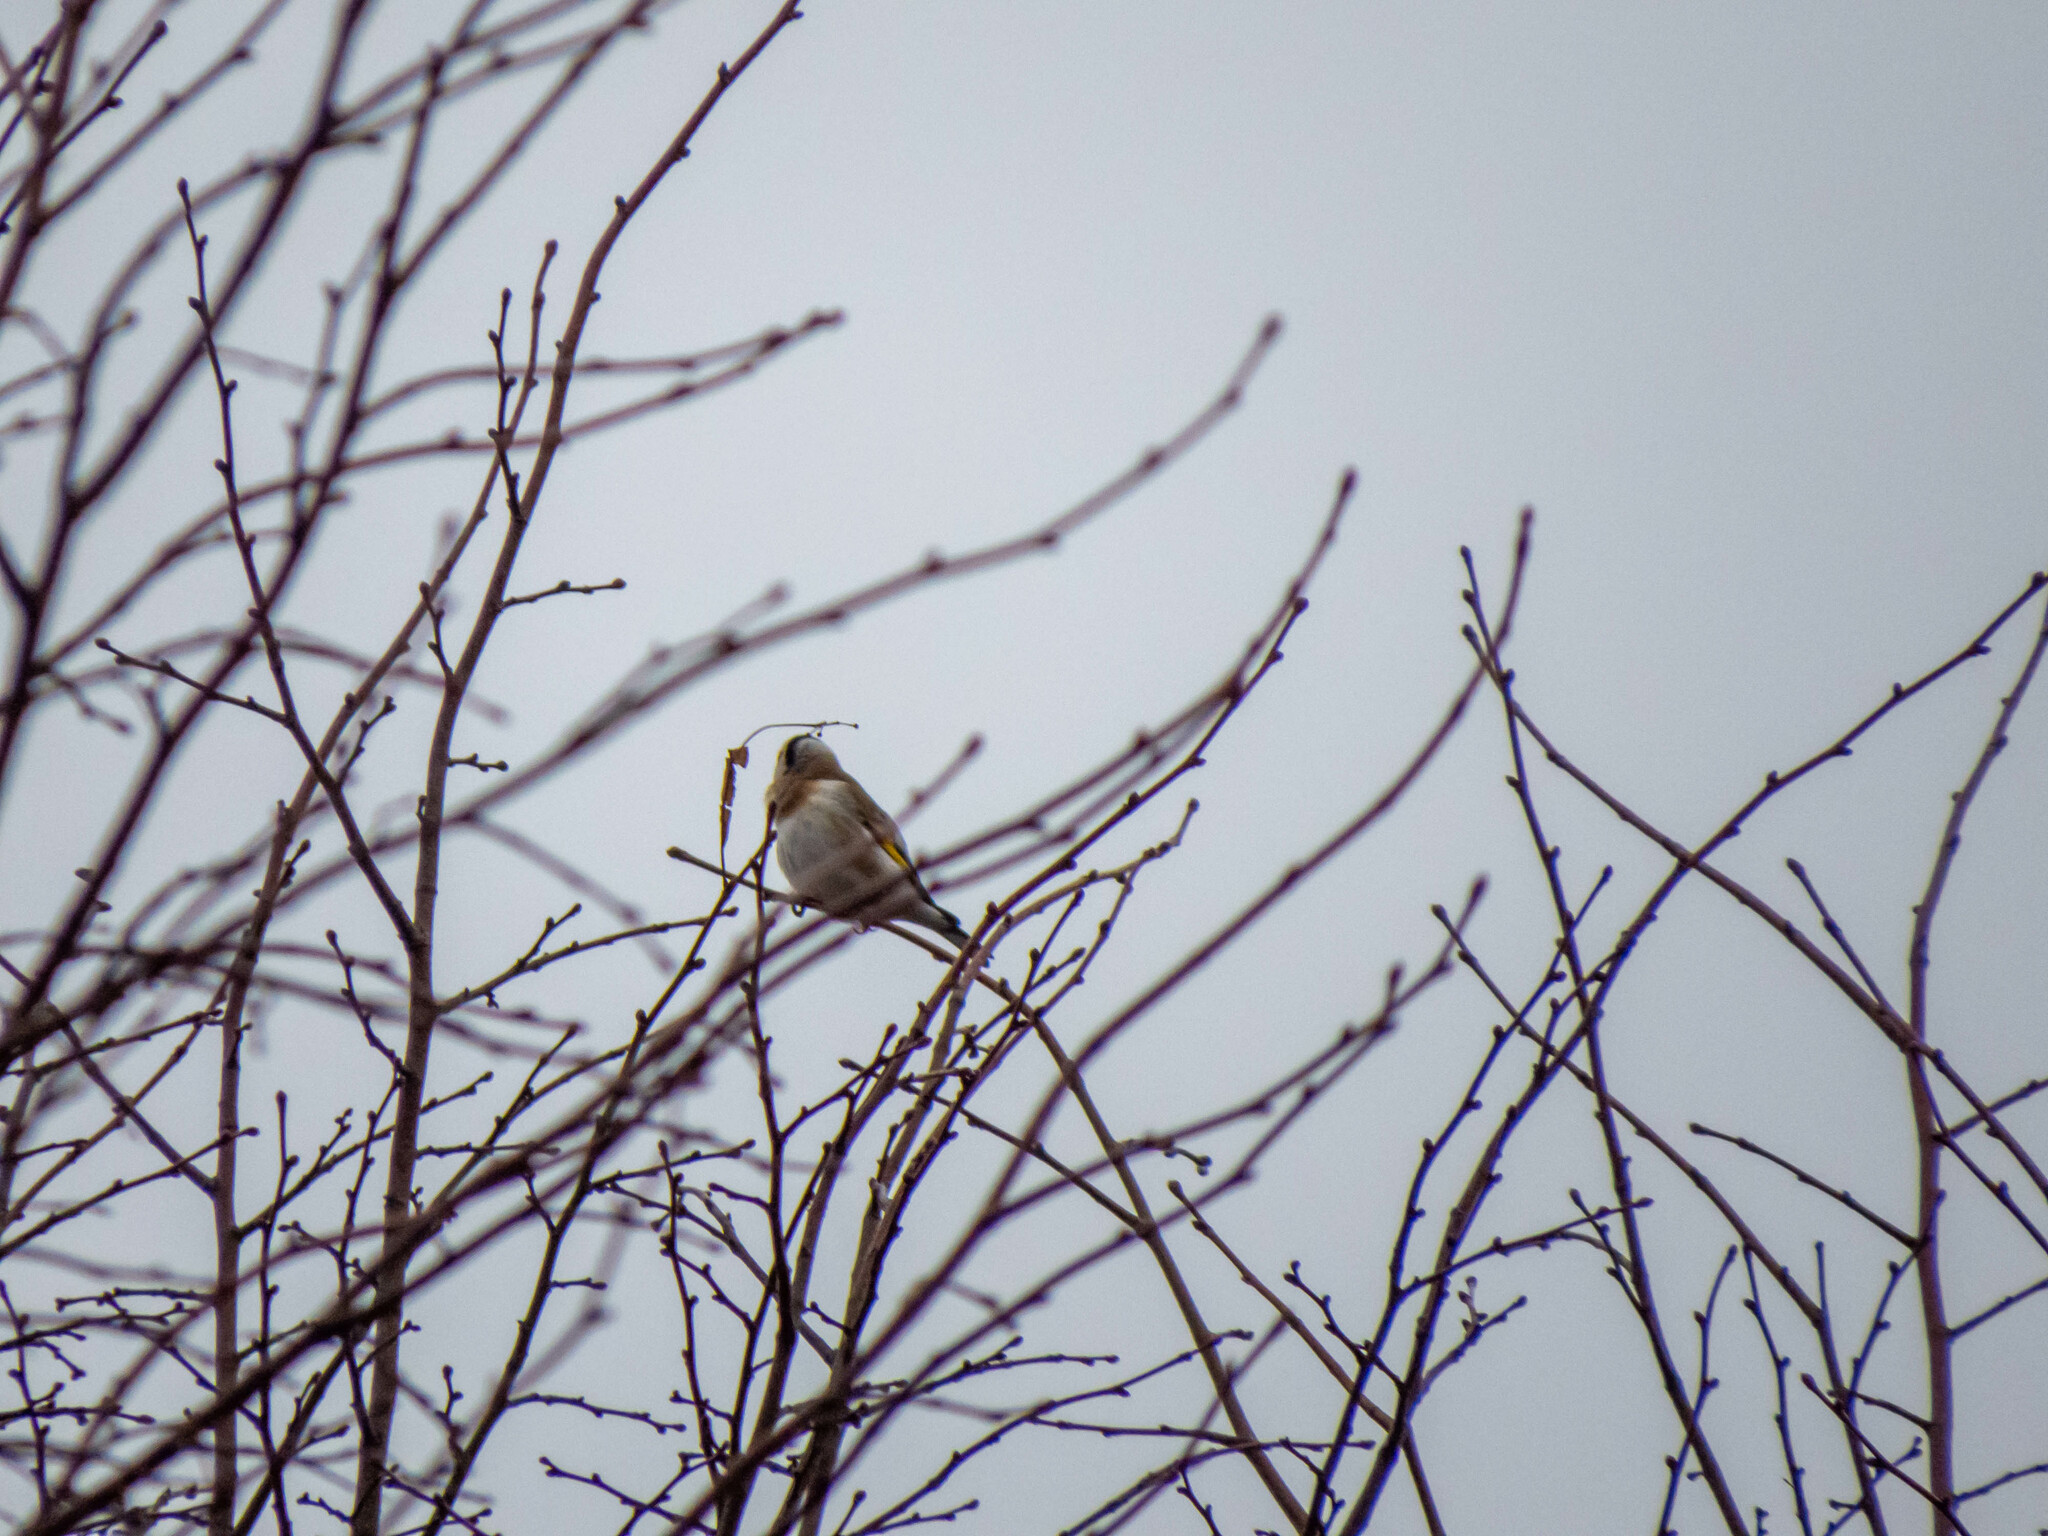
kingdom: Animalia
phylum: Chordata
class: Aves
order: Passeriformes
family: Fringillidae
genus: Carduelis
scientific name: Carduelis carduelis
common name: European goldfinch
